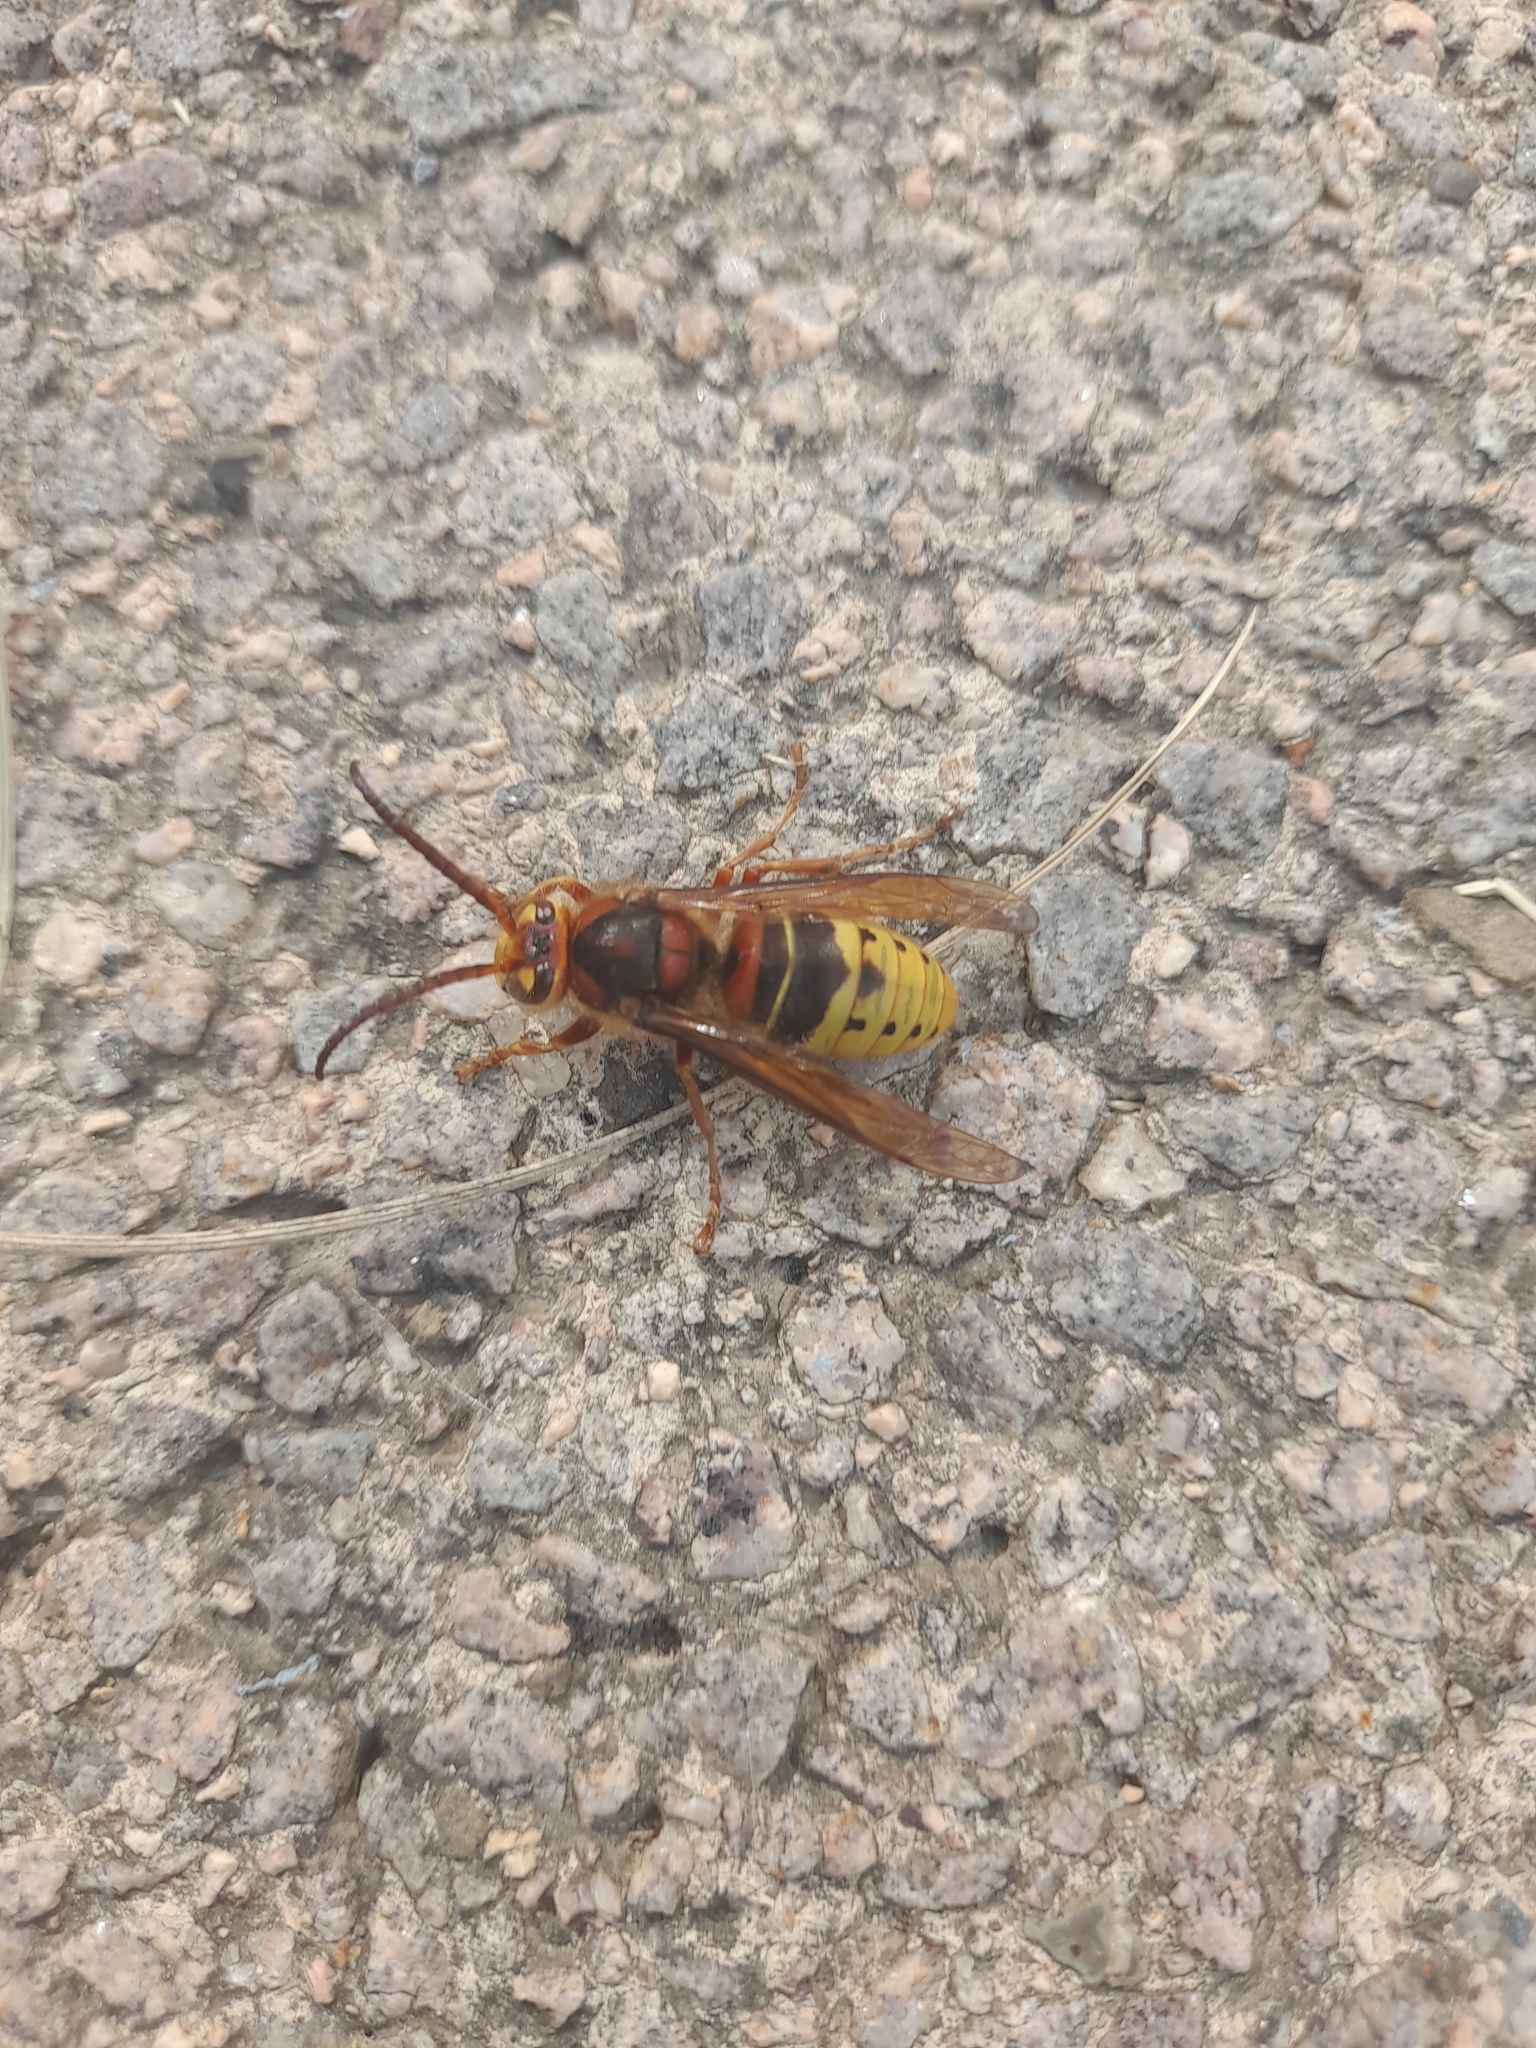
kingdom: Animalia
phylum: Arthropoda
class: Insecta
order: Hymenoptera
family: Vespidae
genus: Vespa
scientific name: Vespa crabro
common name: Hornet
